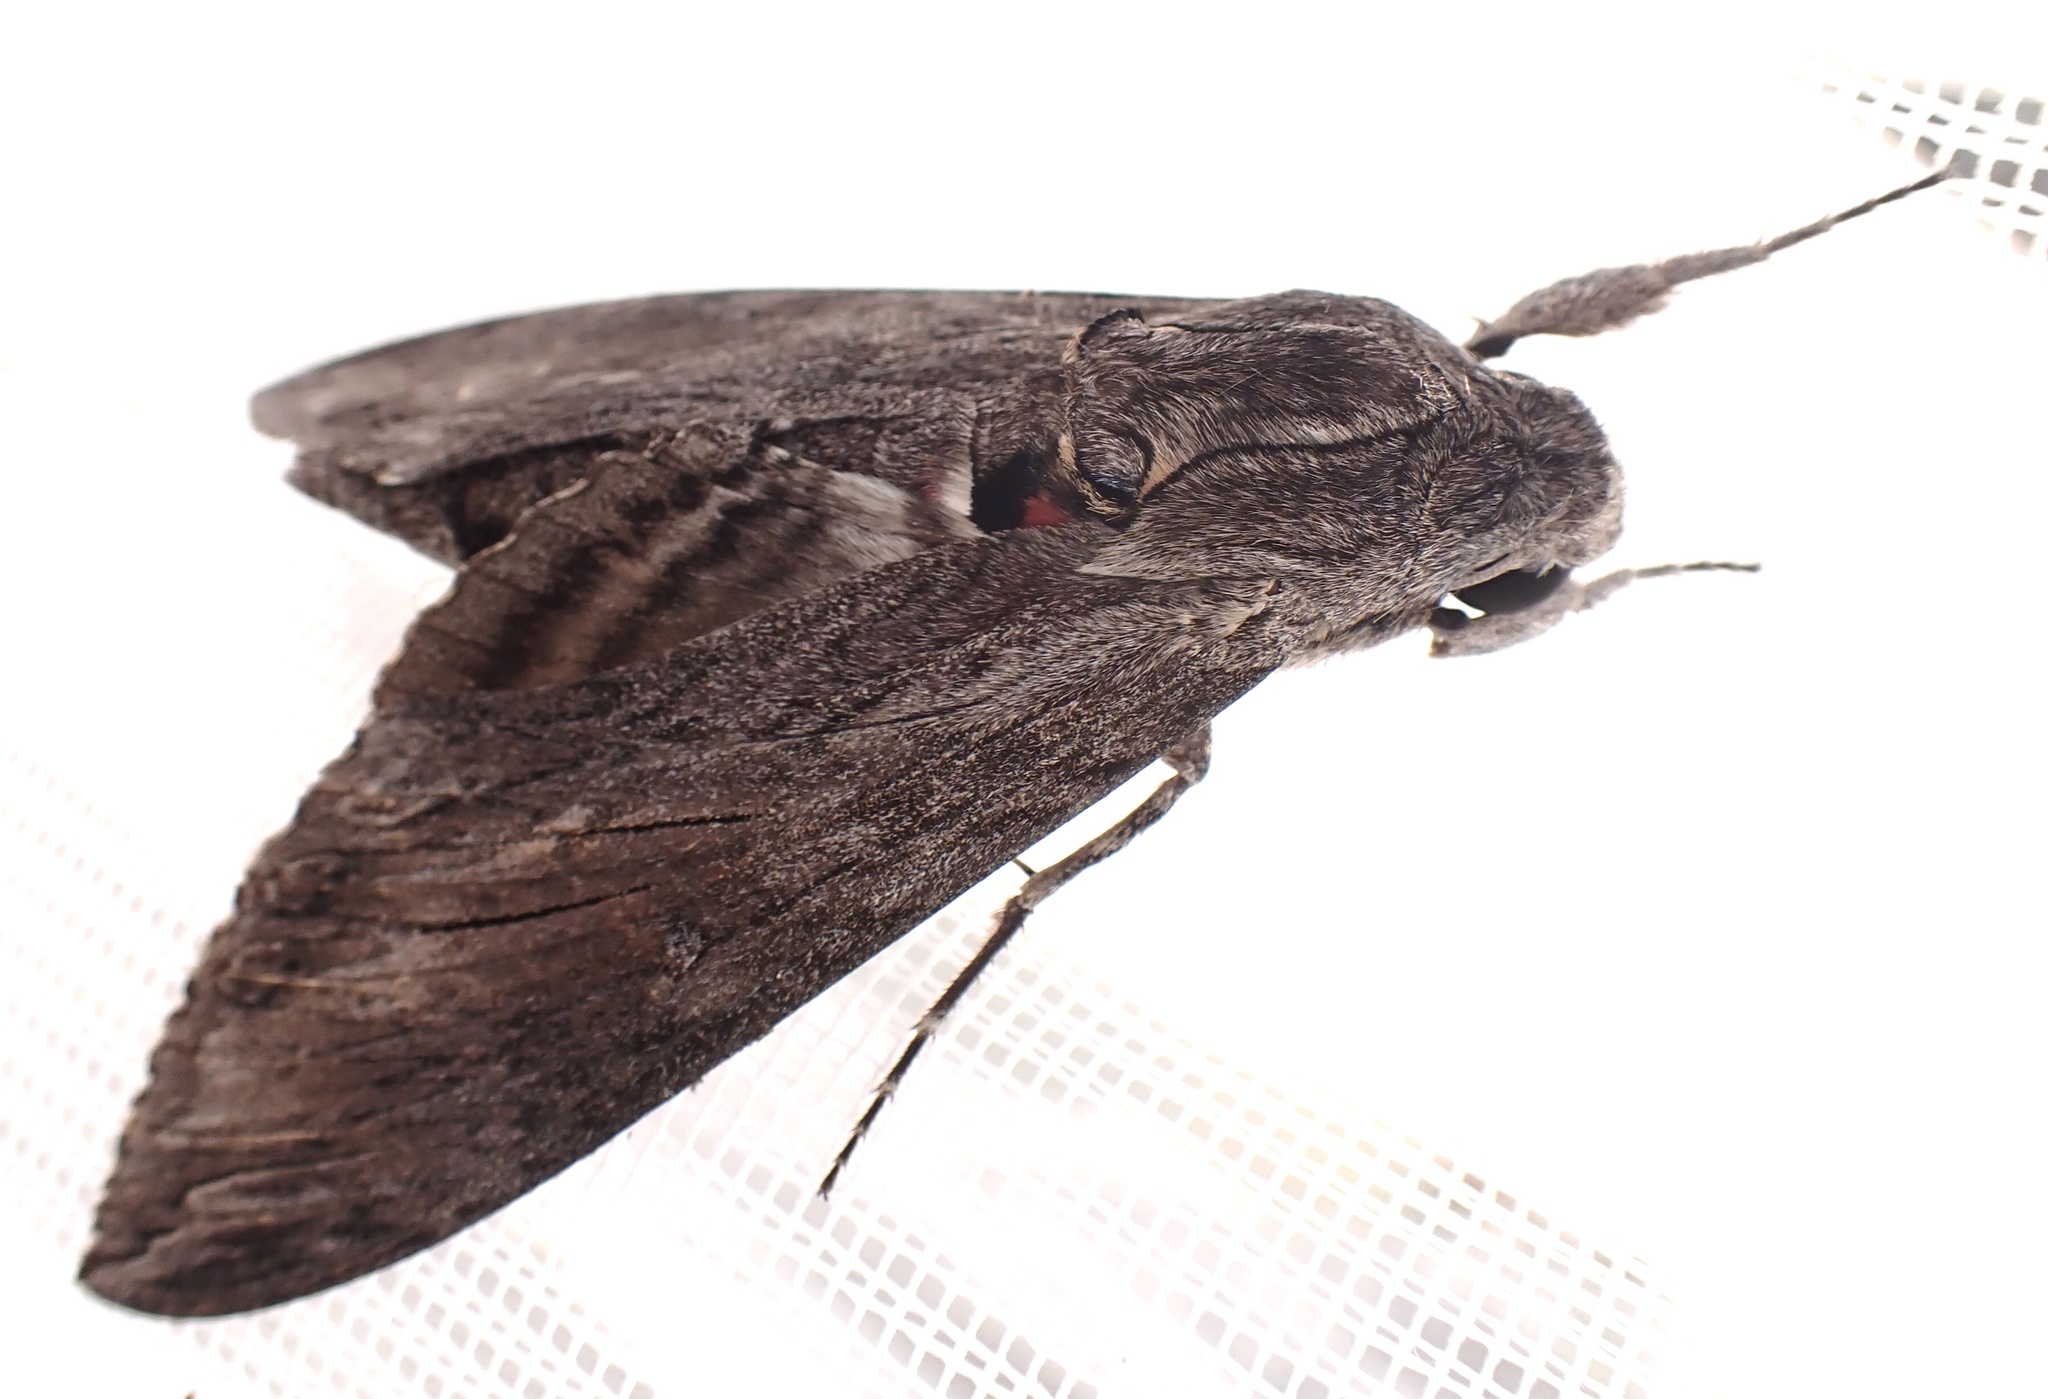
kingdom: Animalia
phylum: Arthropoda
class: Insecta
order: Lepidoptera
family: Sphingidae
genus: Agrius
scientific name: Agrius convolvuli
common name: Convolvulus hawkmoth
